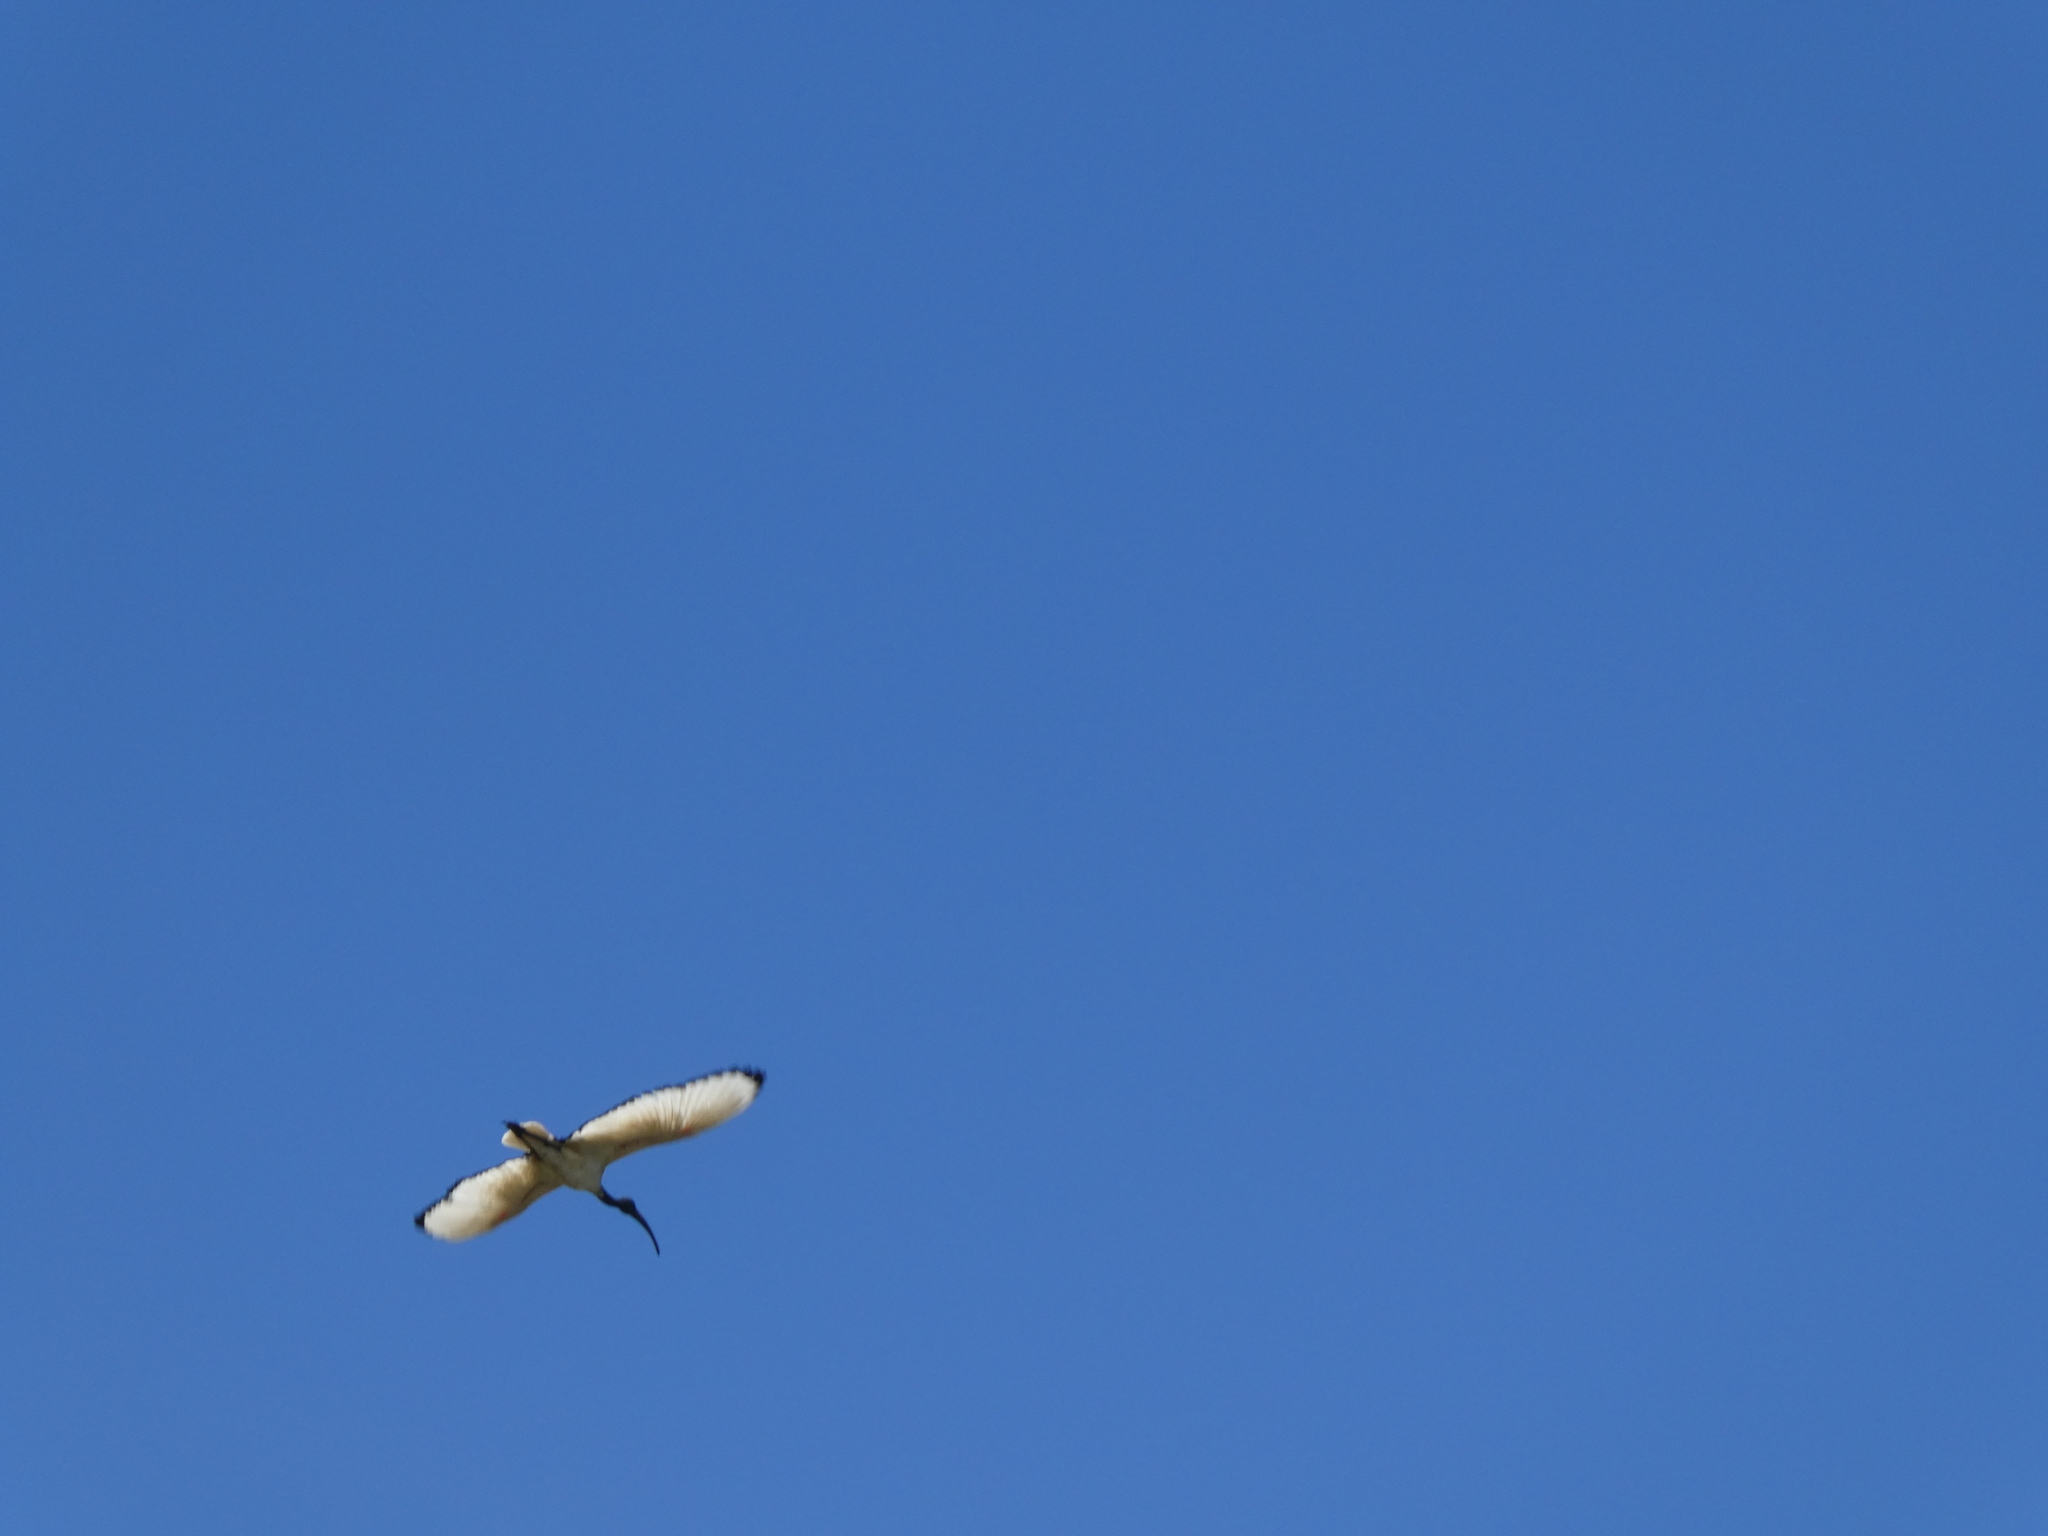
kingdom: Animalia
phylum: Chordata
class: Aves
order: Pelecaniformes
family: Threskiornithidae
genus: Threskiornis
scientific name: Threskiornis aethiopicus
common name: Sacred ibis
